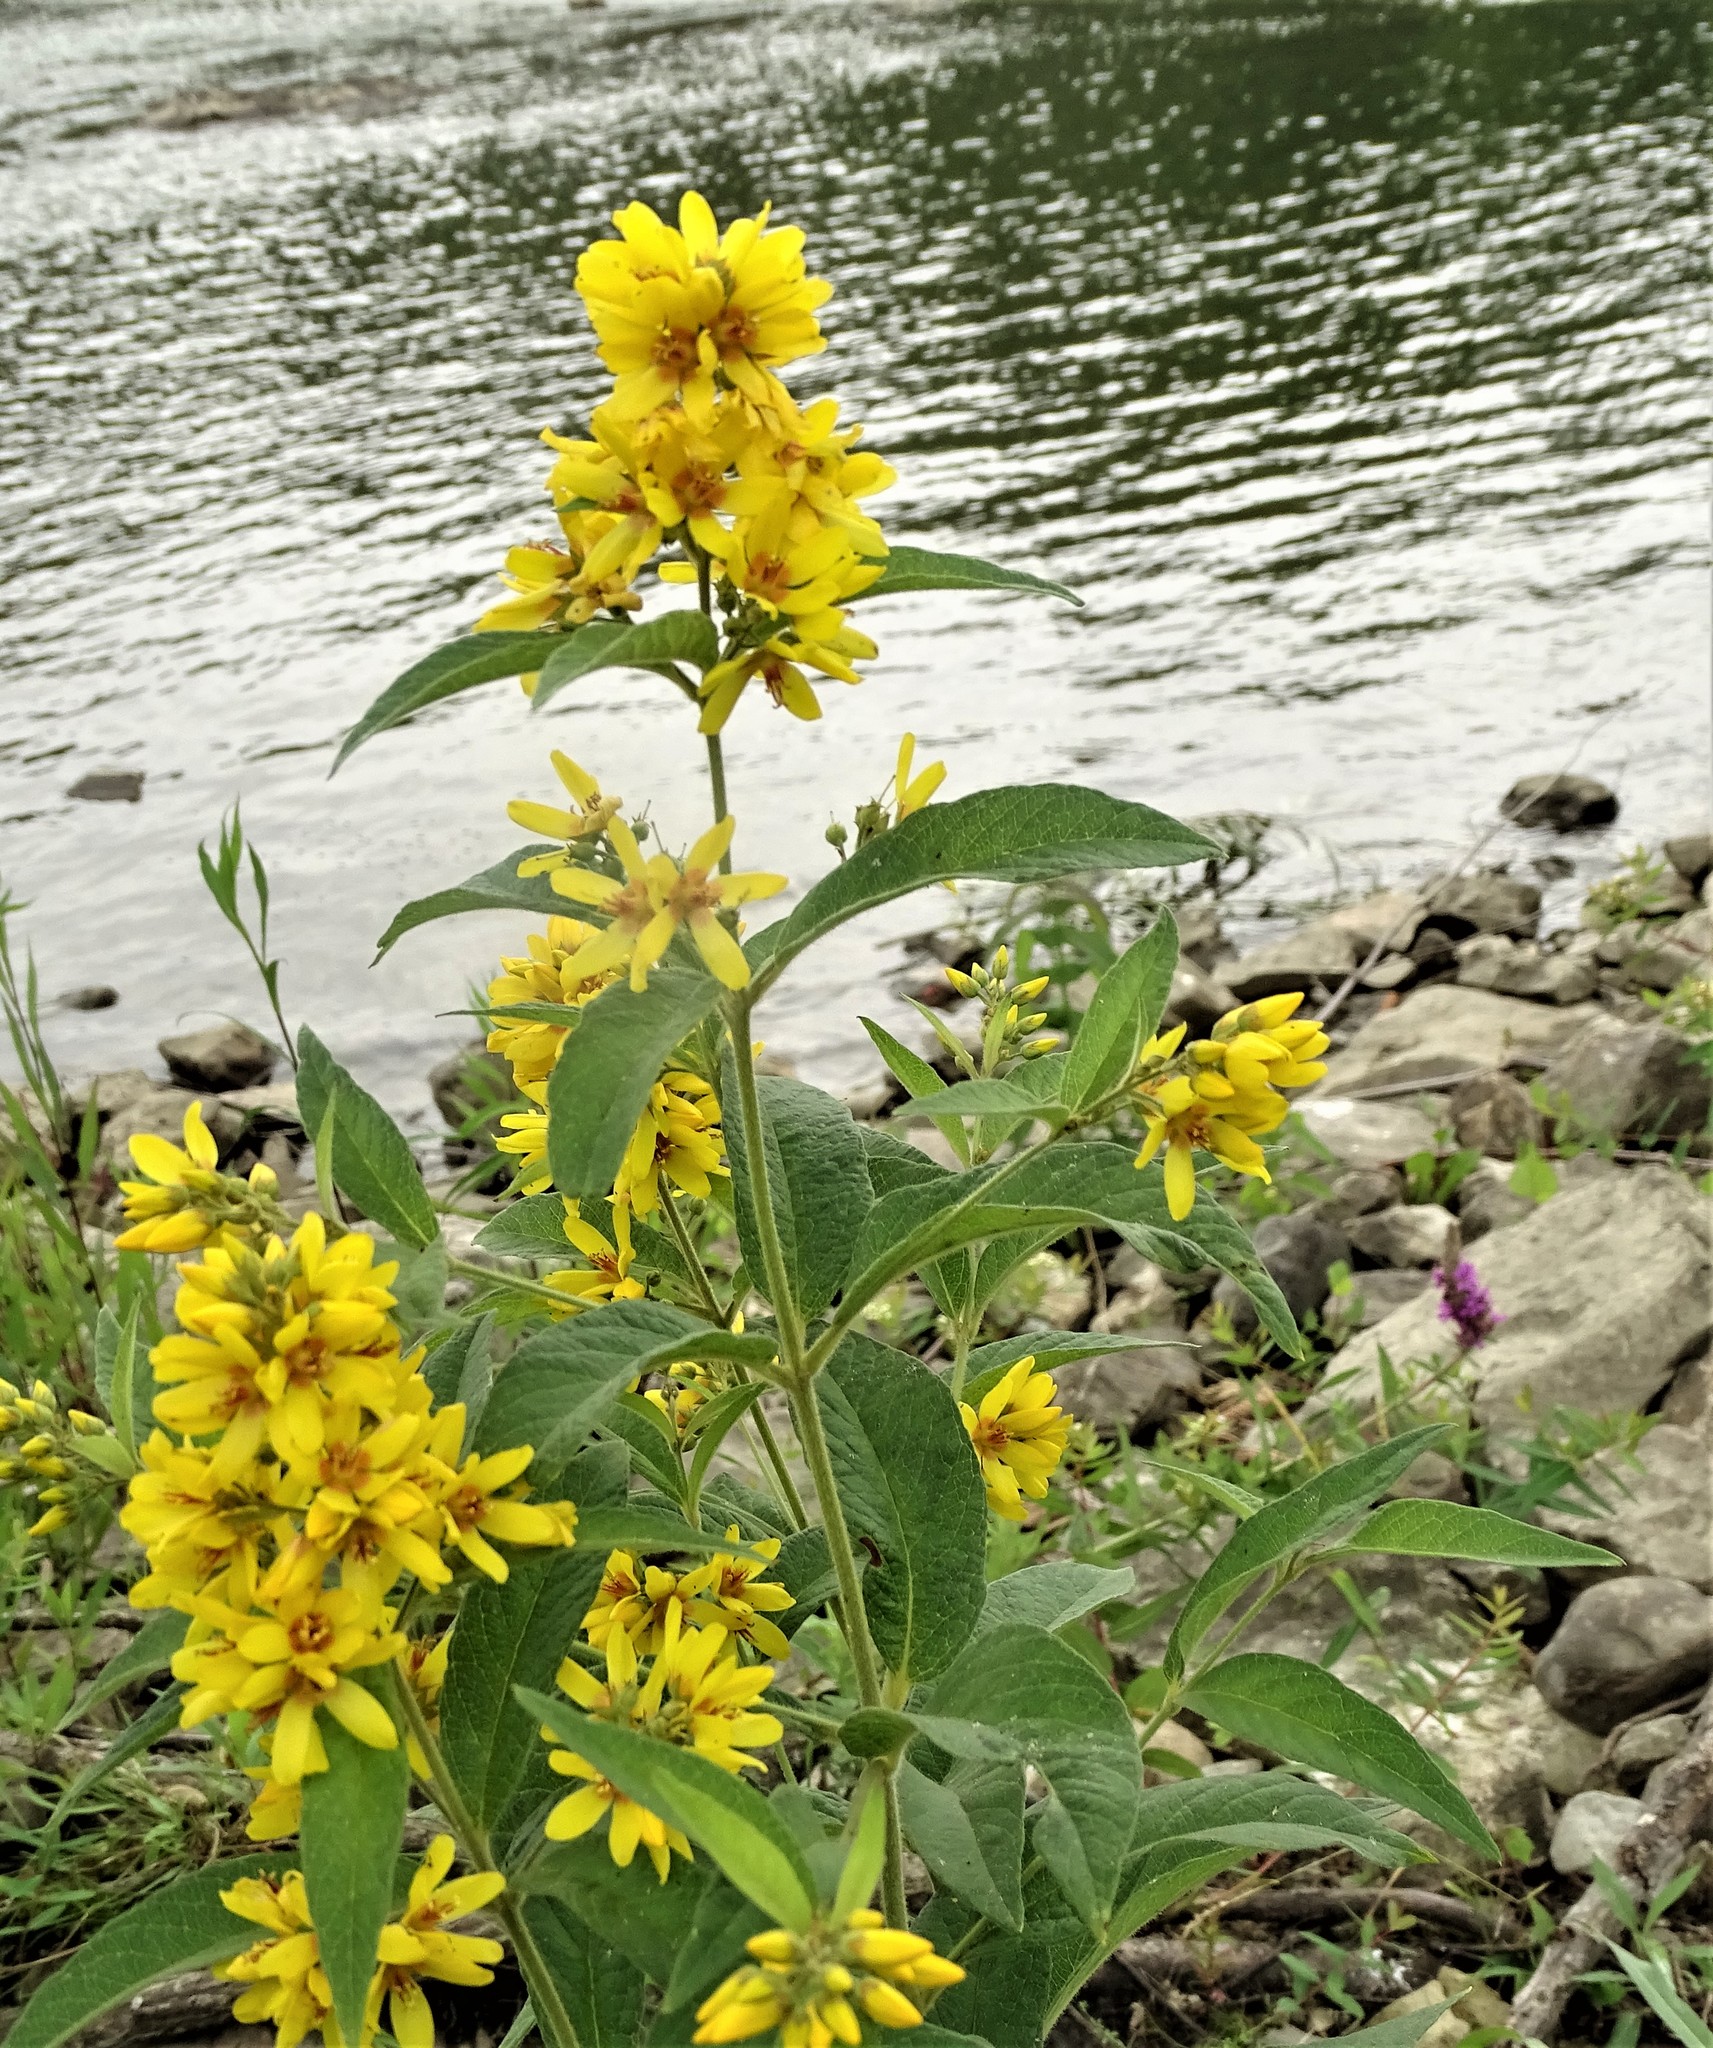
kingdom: Plantae
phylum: Tracheophyta
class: Magnoliopsida
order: Ericales
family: Primulaceae
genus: Lysimachia
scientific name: Lysimachia vulgaris
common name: Yellow loosestrife
